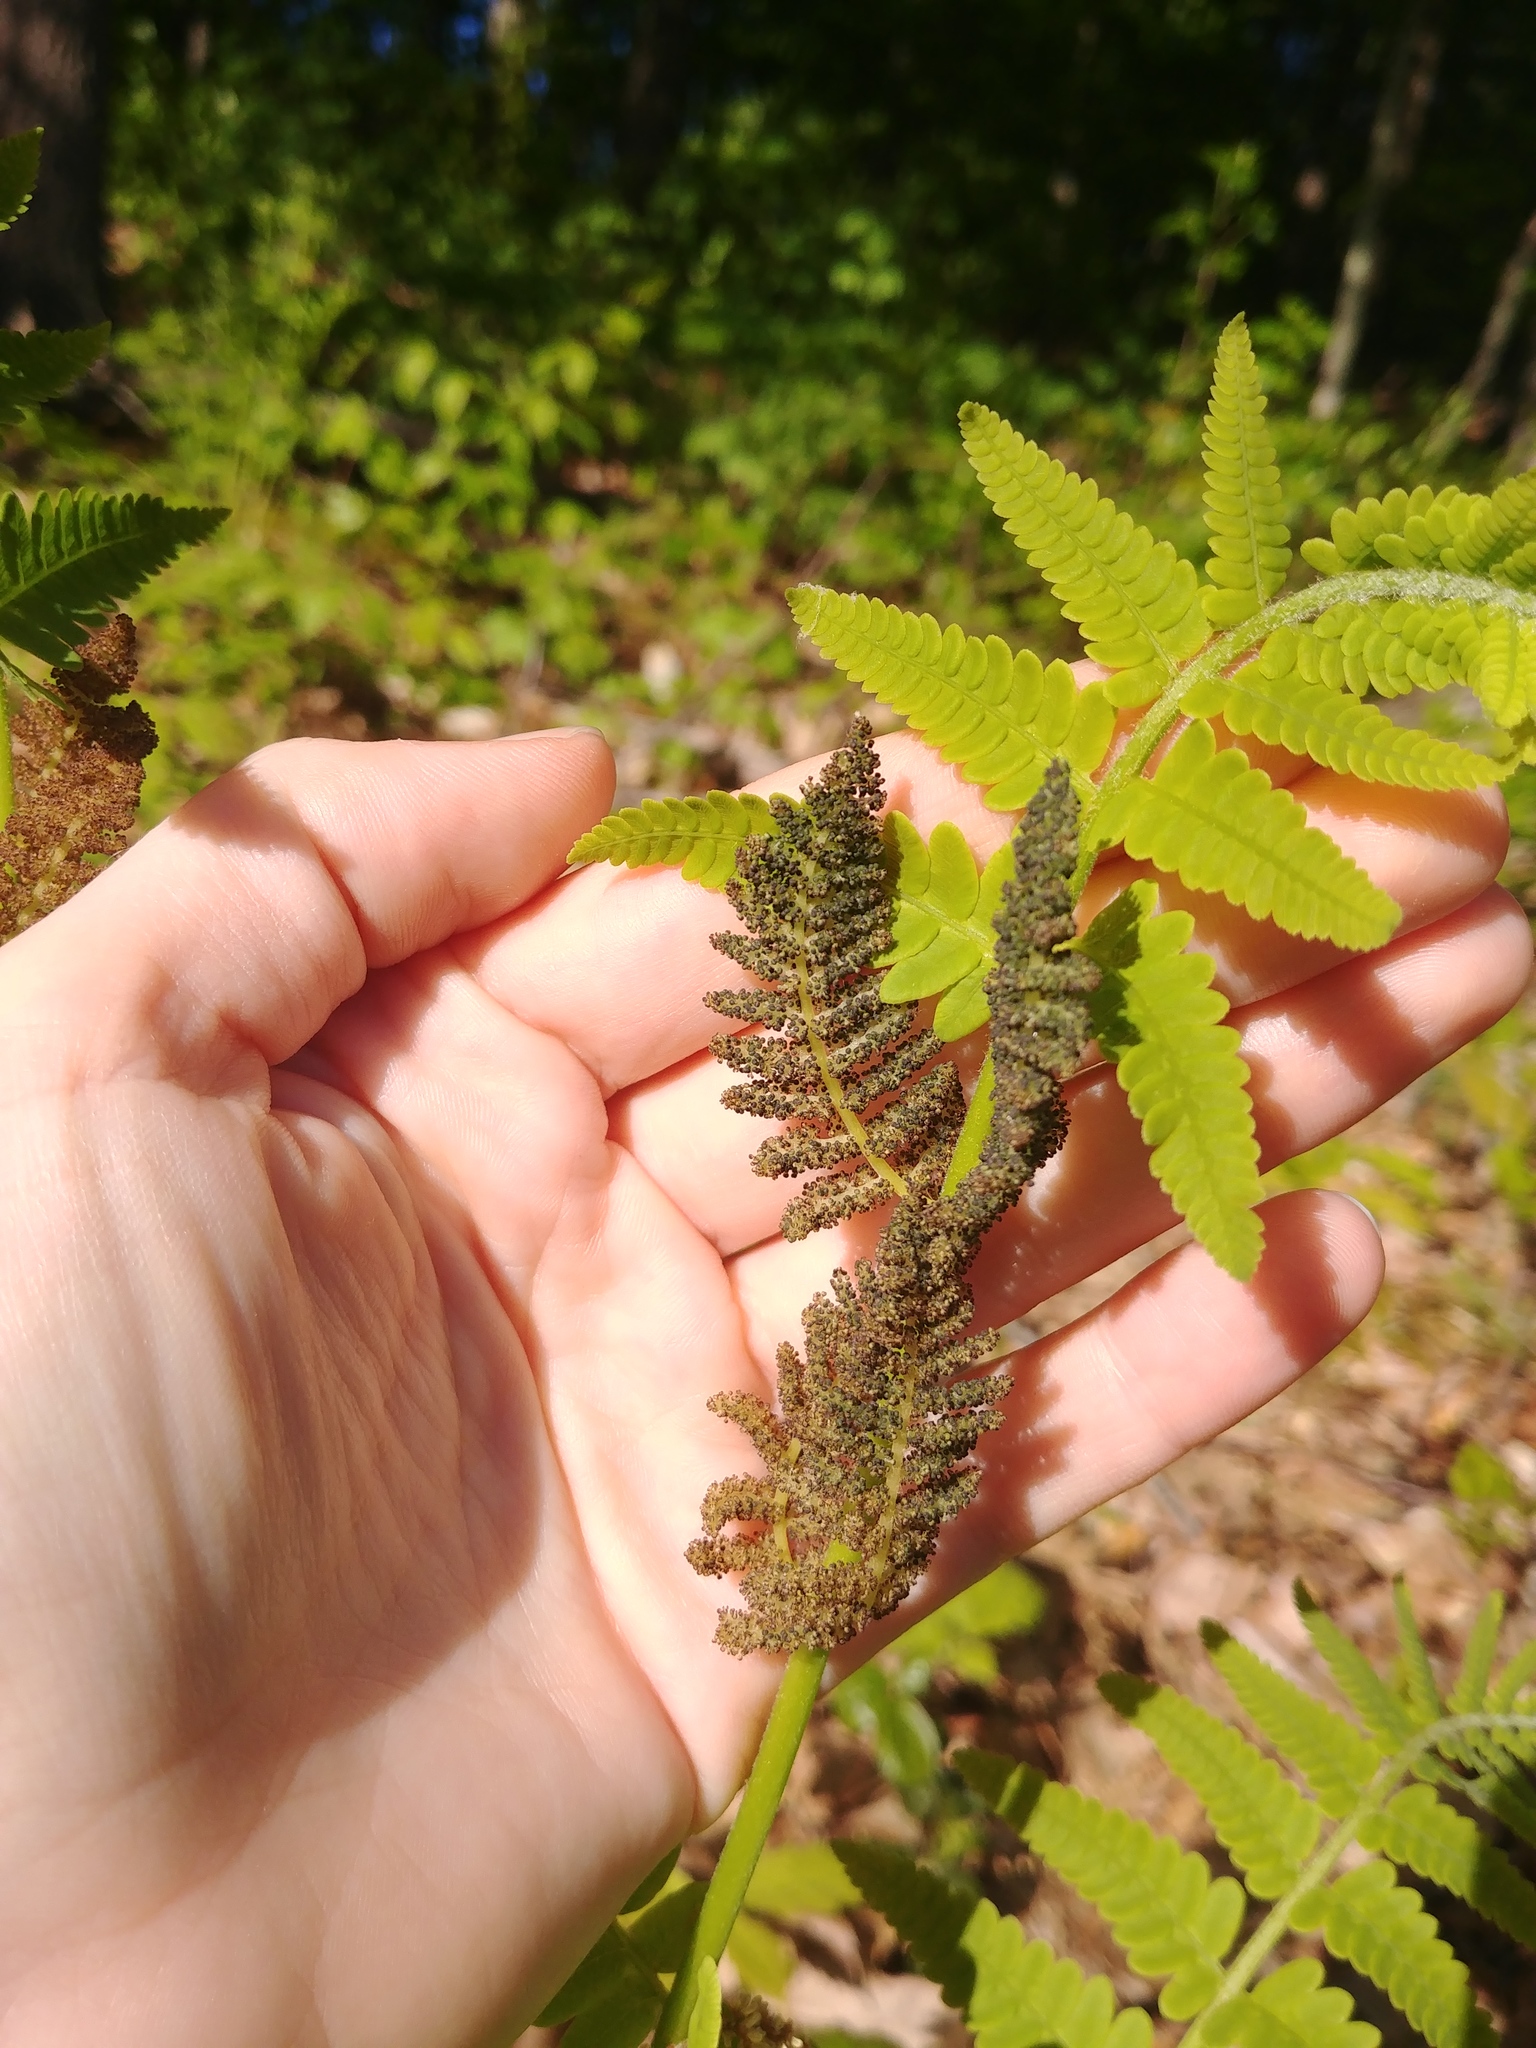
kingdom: Plantae
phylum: Tracheophyta
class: Polypodiopsida
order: Osmundales
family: Osmundaceae
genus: Claytosmunda
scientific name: Claytosmunda claytoniana
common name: Clayton's fern
